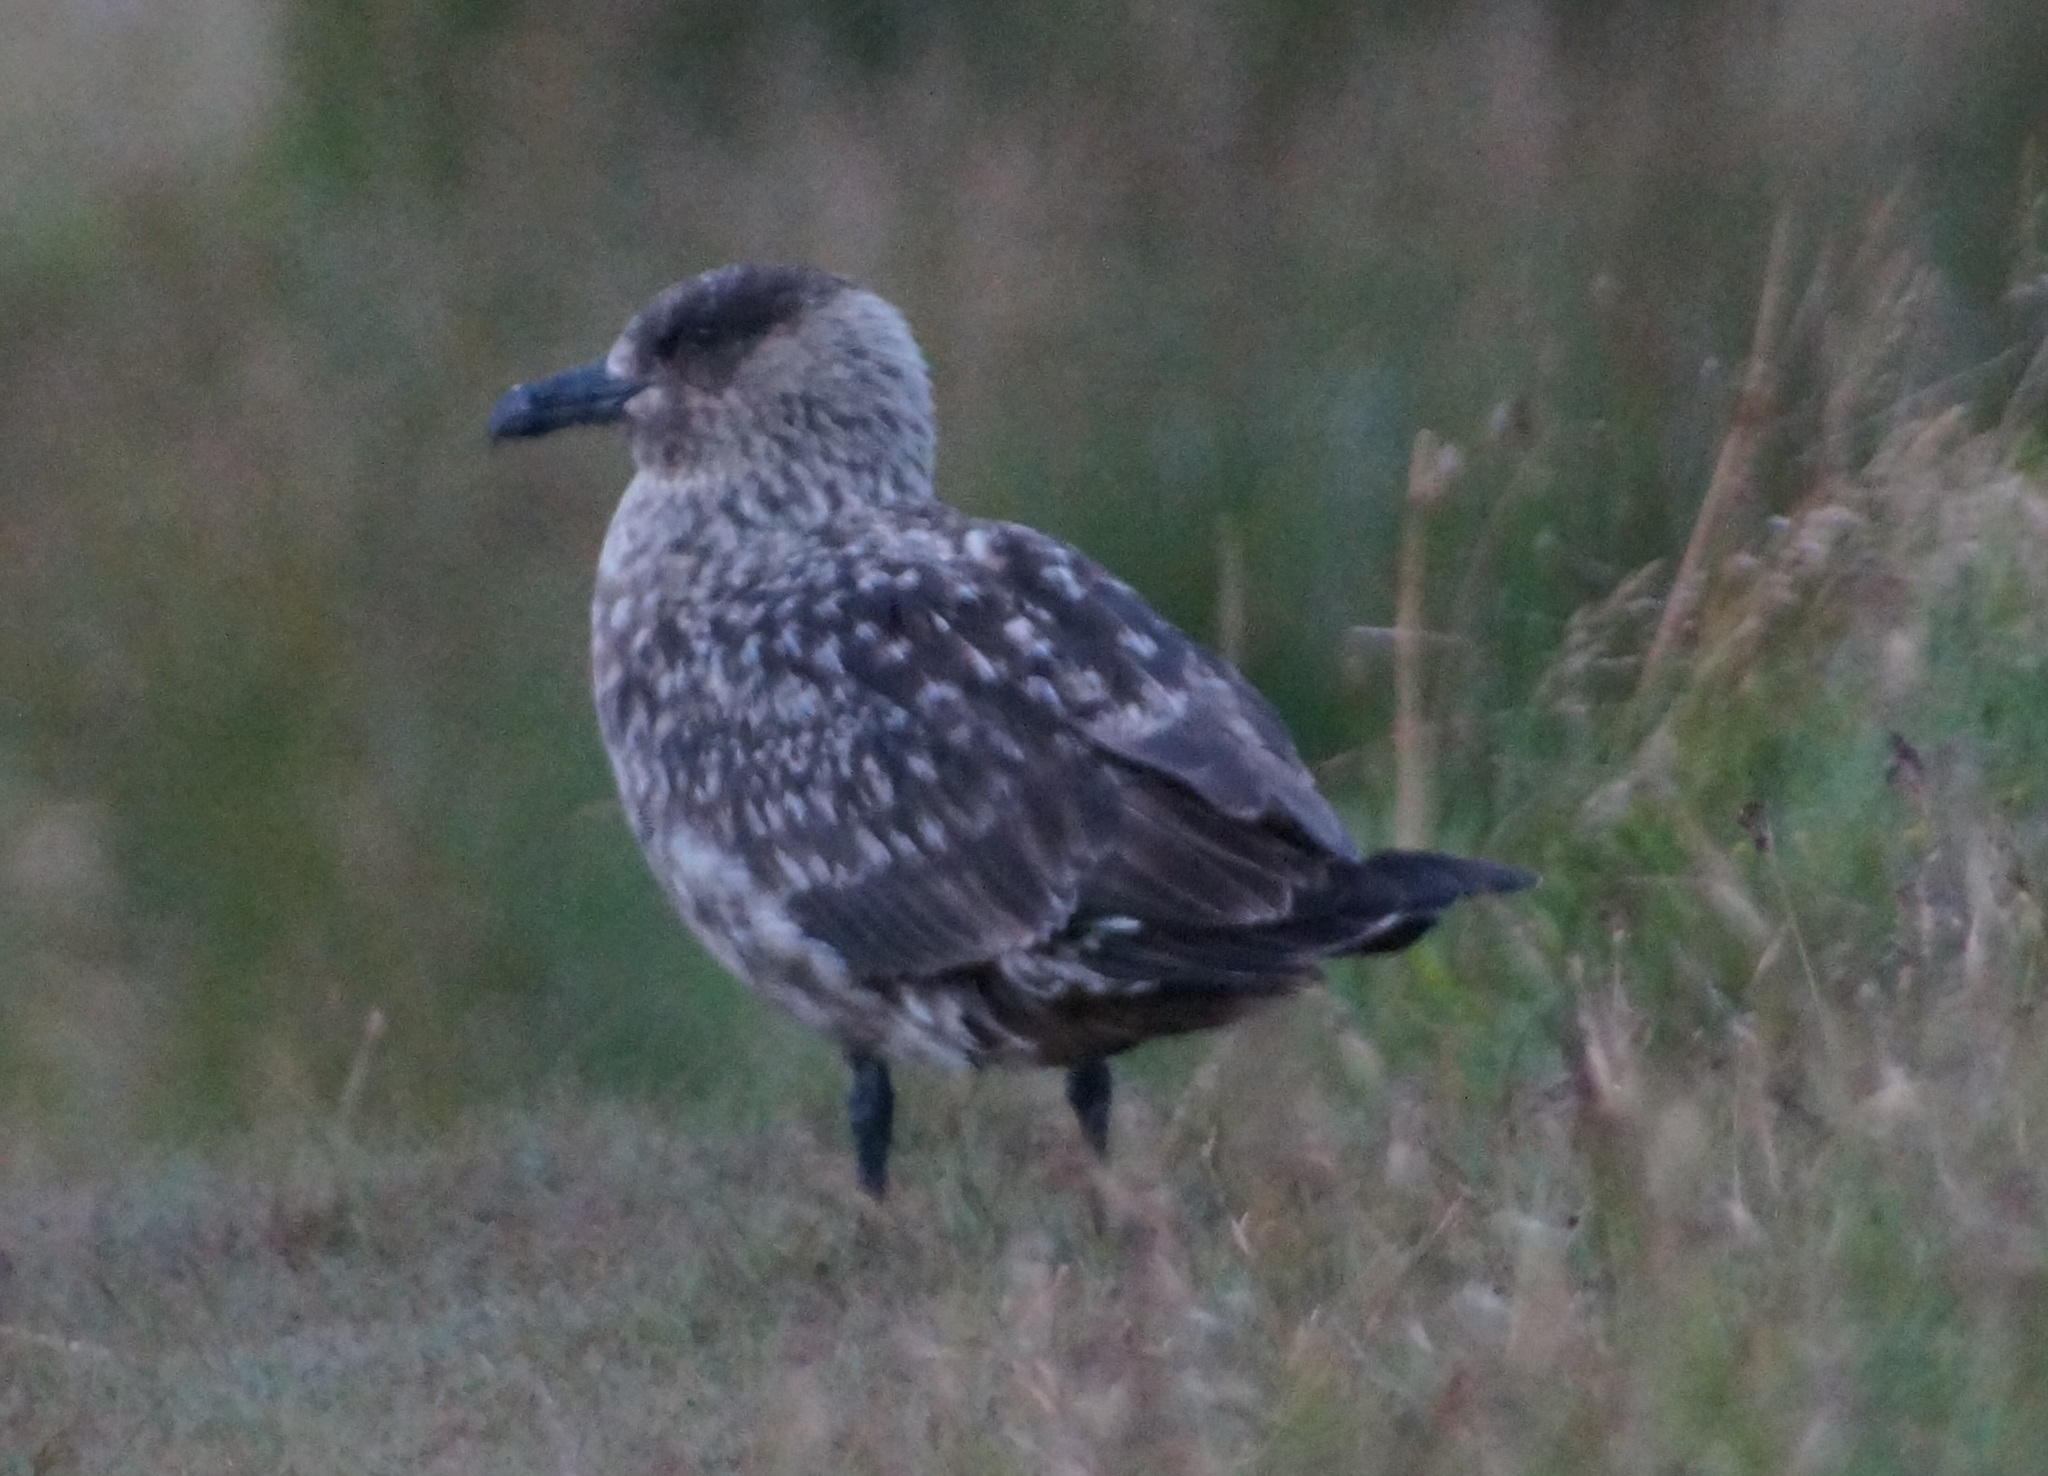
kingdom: Animalia
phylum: Chordata
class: Aves
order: Charadriiformes
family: Stercorariidae
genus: Stercorarius
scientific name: Stercorarius skua
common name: Great skua
